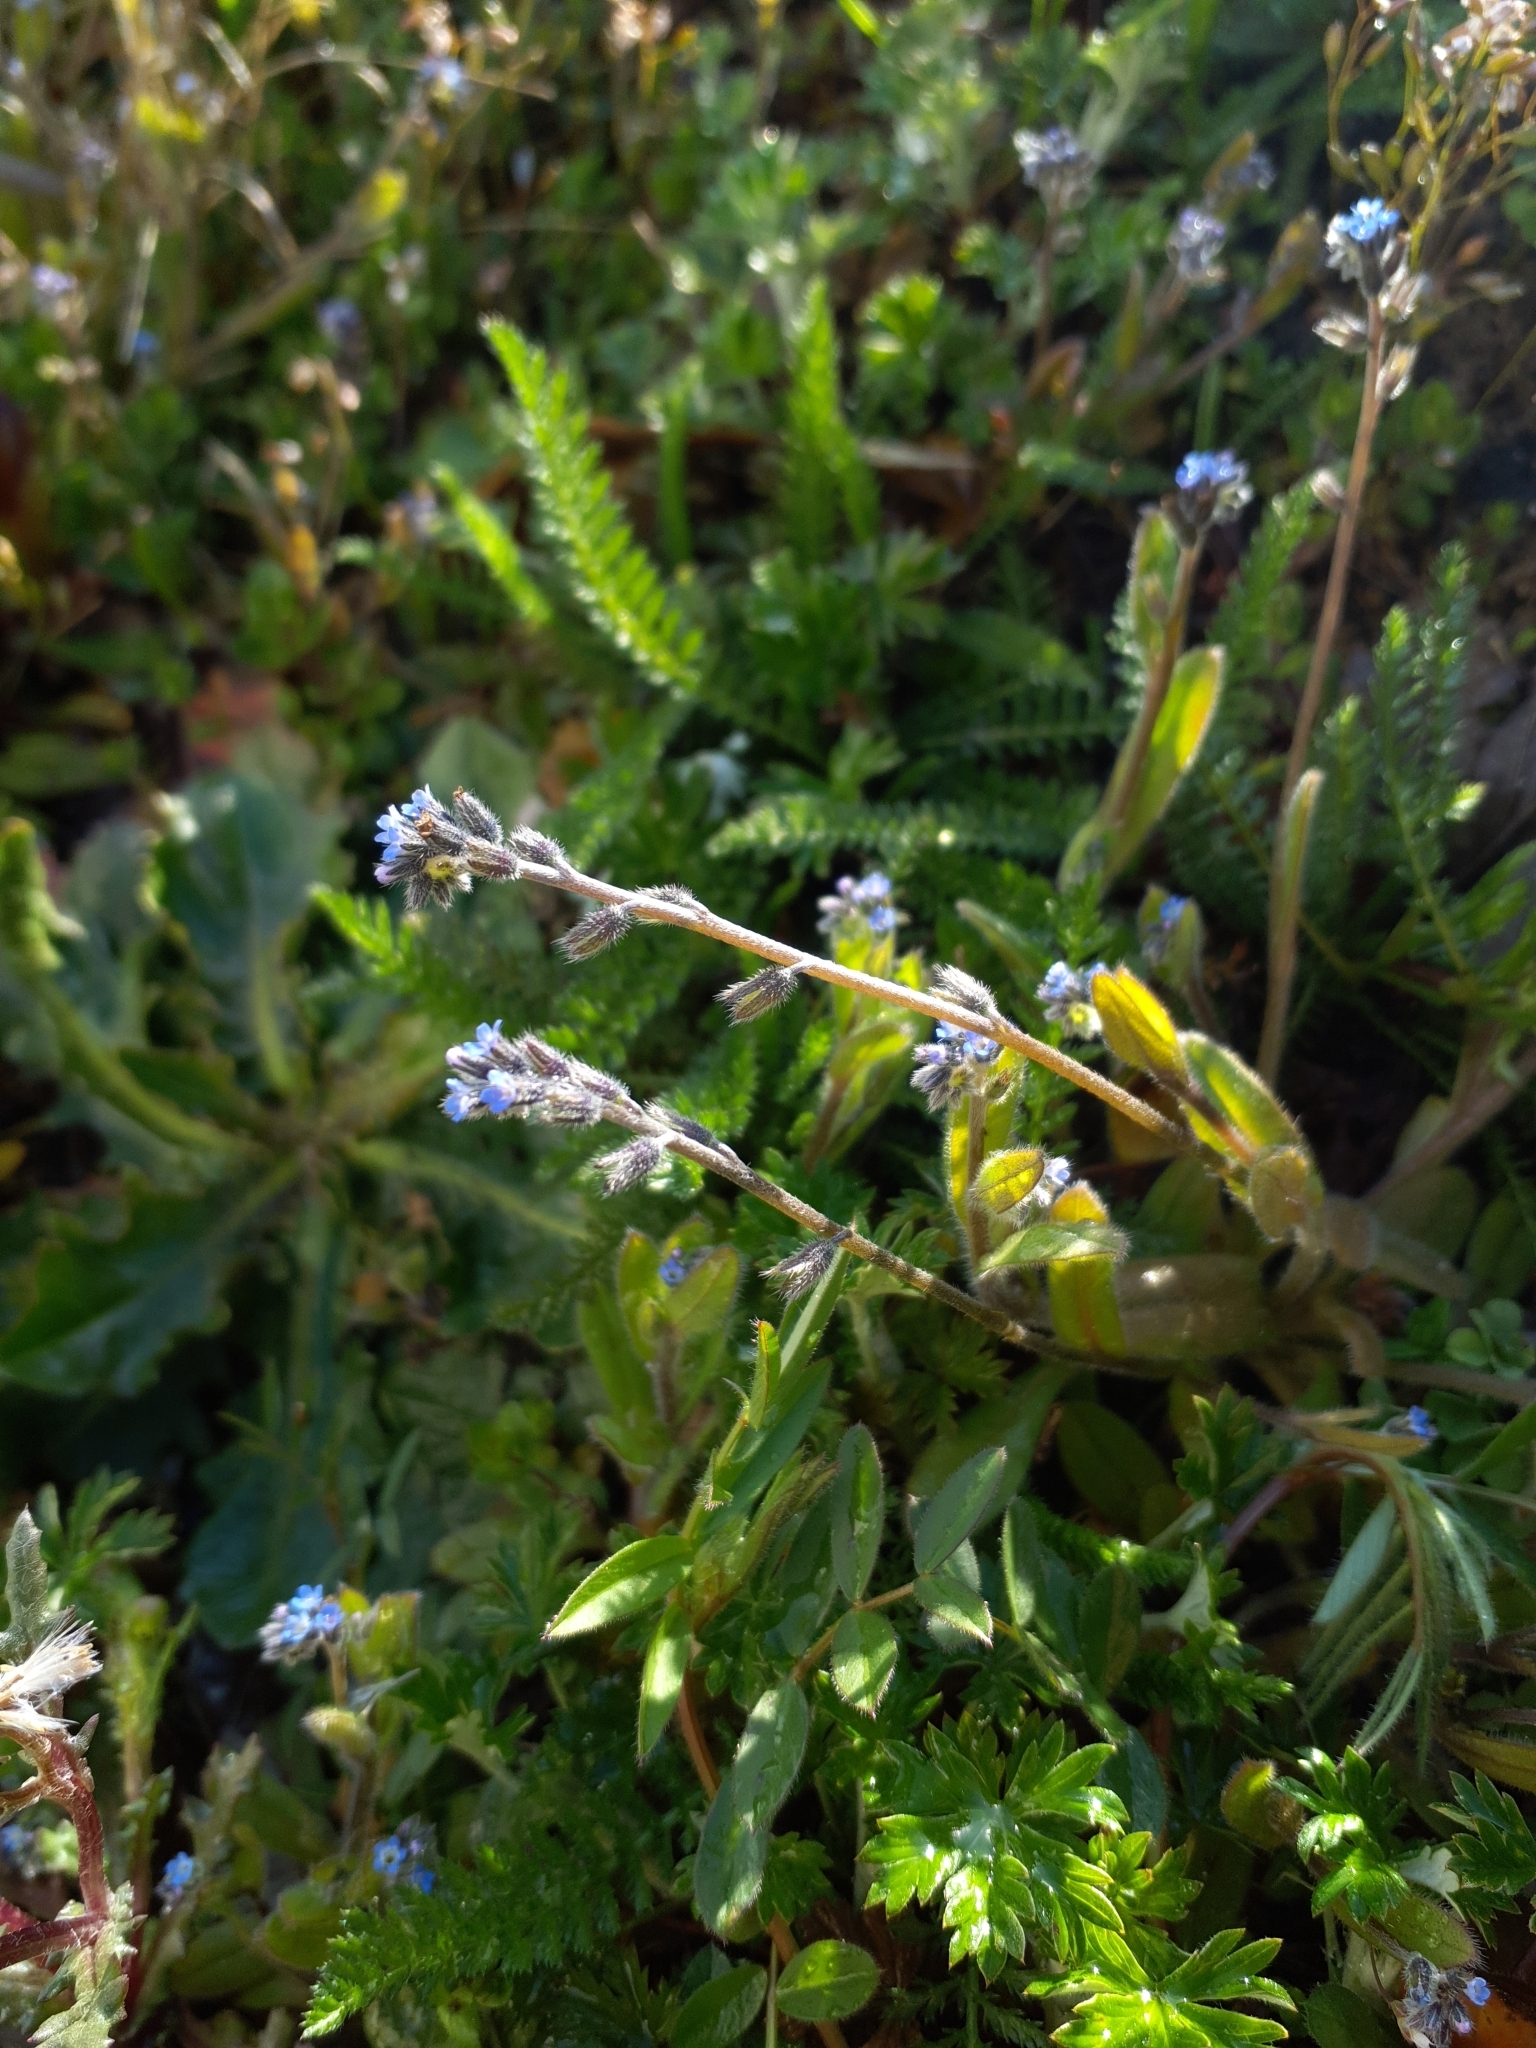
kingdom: Plantae
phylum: Tracheophyta
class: Magnoliopsida
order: Boraginales
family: Boraginaceae
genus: Myosotis
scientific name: Myosotis ramosissima
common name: Early forget-me-not
